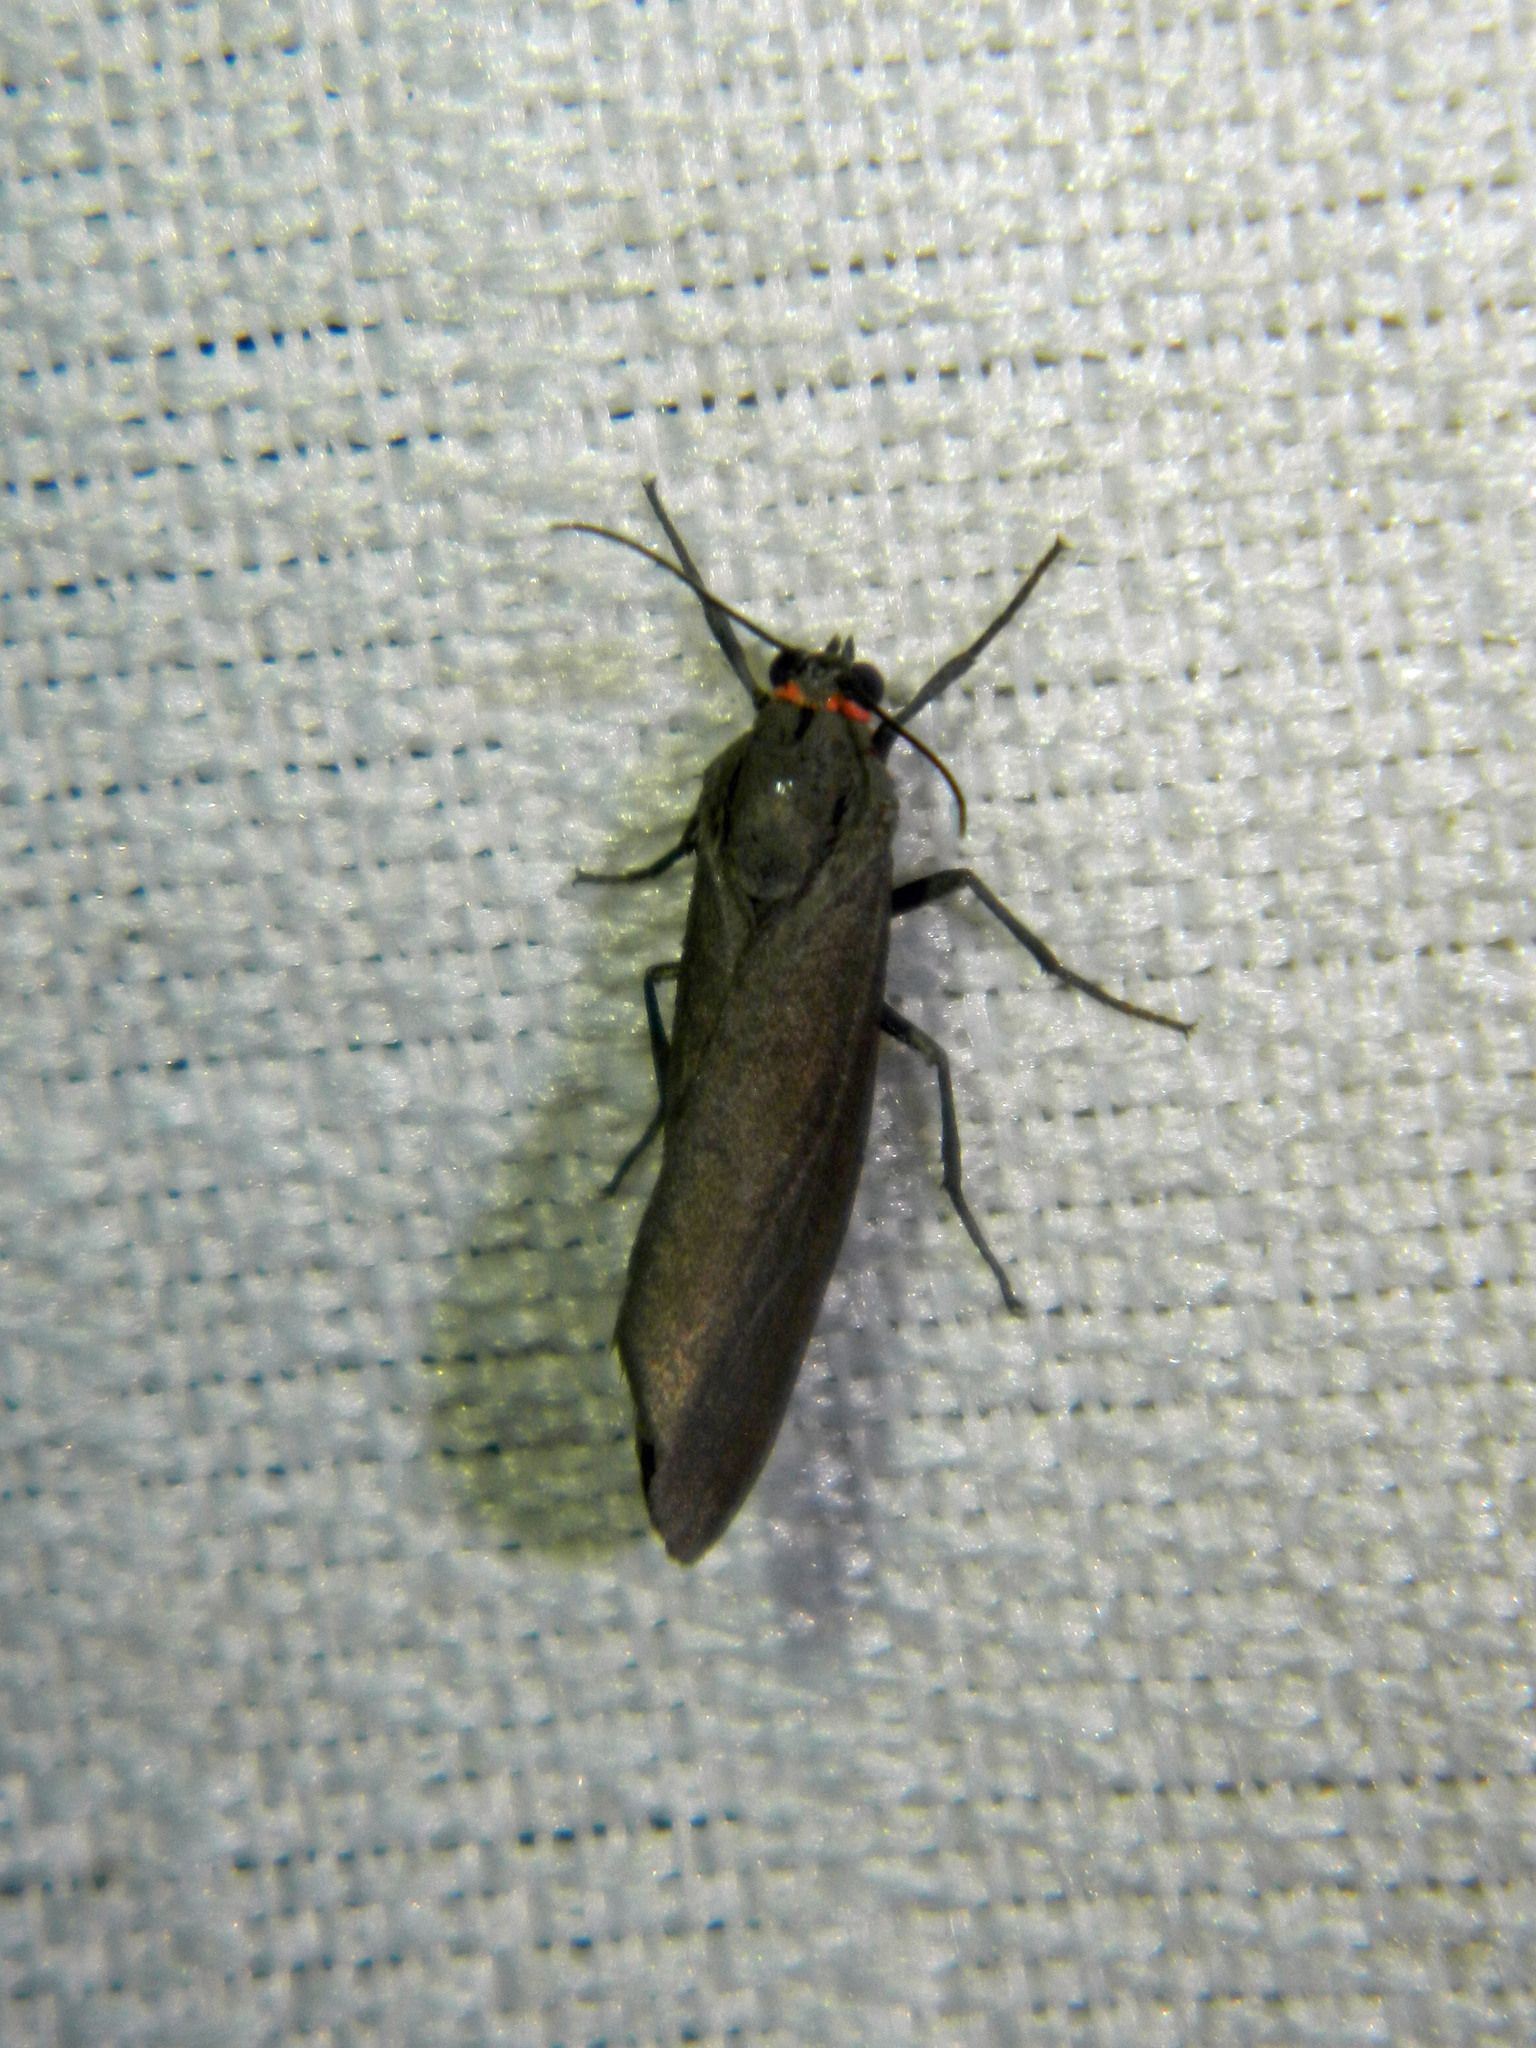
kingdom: Animalia
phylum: Arthropoda
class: Insecta
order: Lepidoptera
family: Erebidae
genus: Virbia
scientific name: Virbia laeta
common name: Joyful holomelina moth
